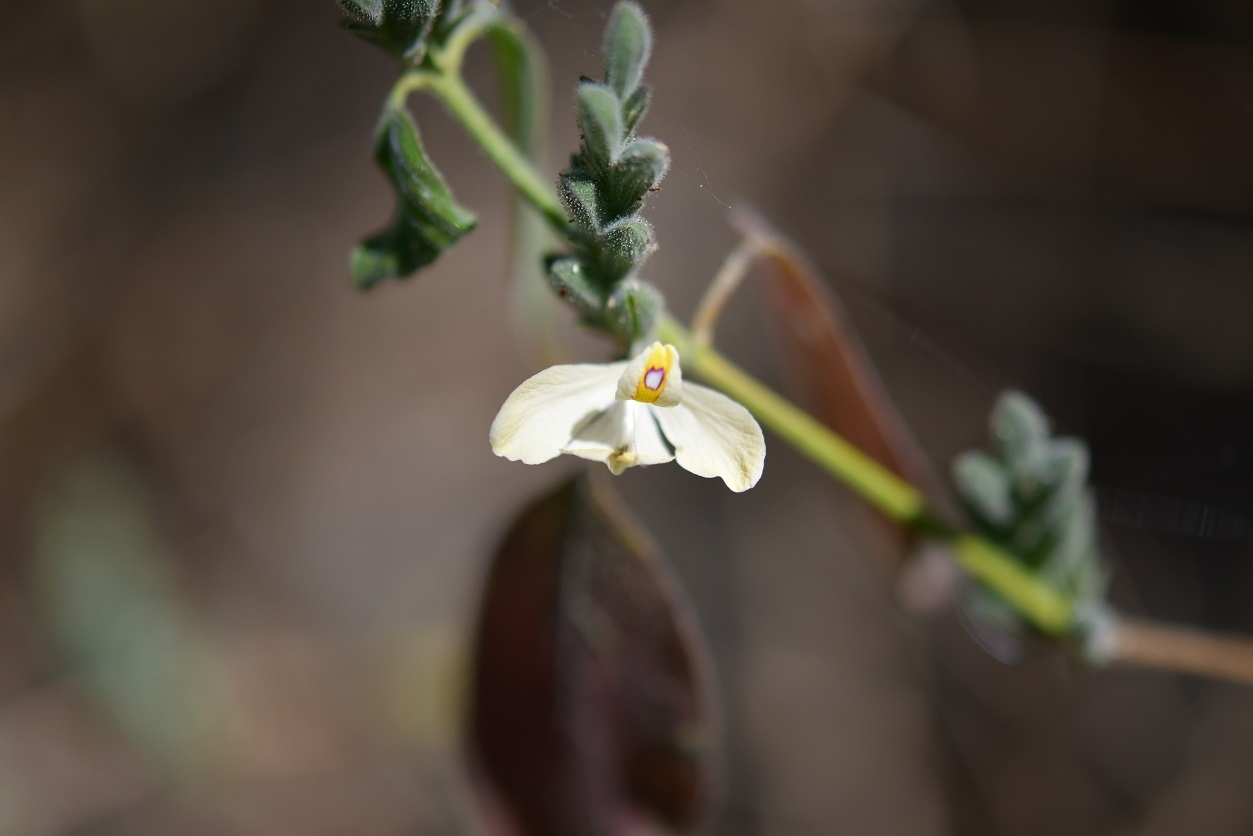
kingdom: Plantae
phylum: Tracheophyta
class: Magnoliopsida
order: Lamiales
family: Acanthaceae
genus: Henrya
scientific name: Henrya insularis
